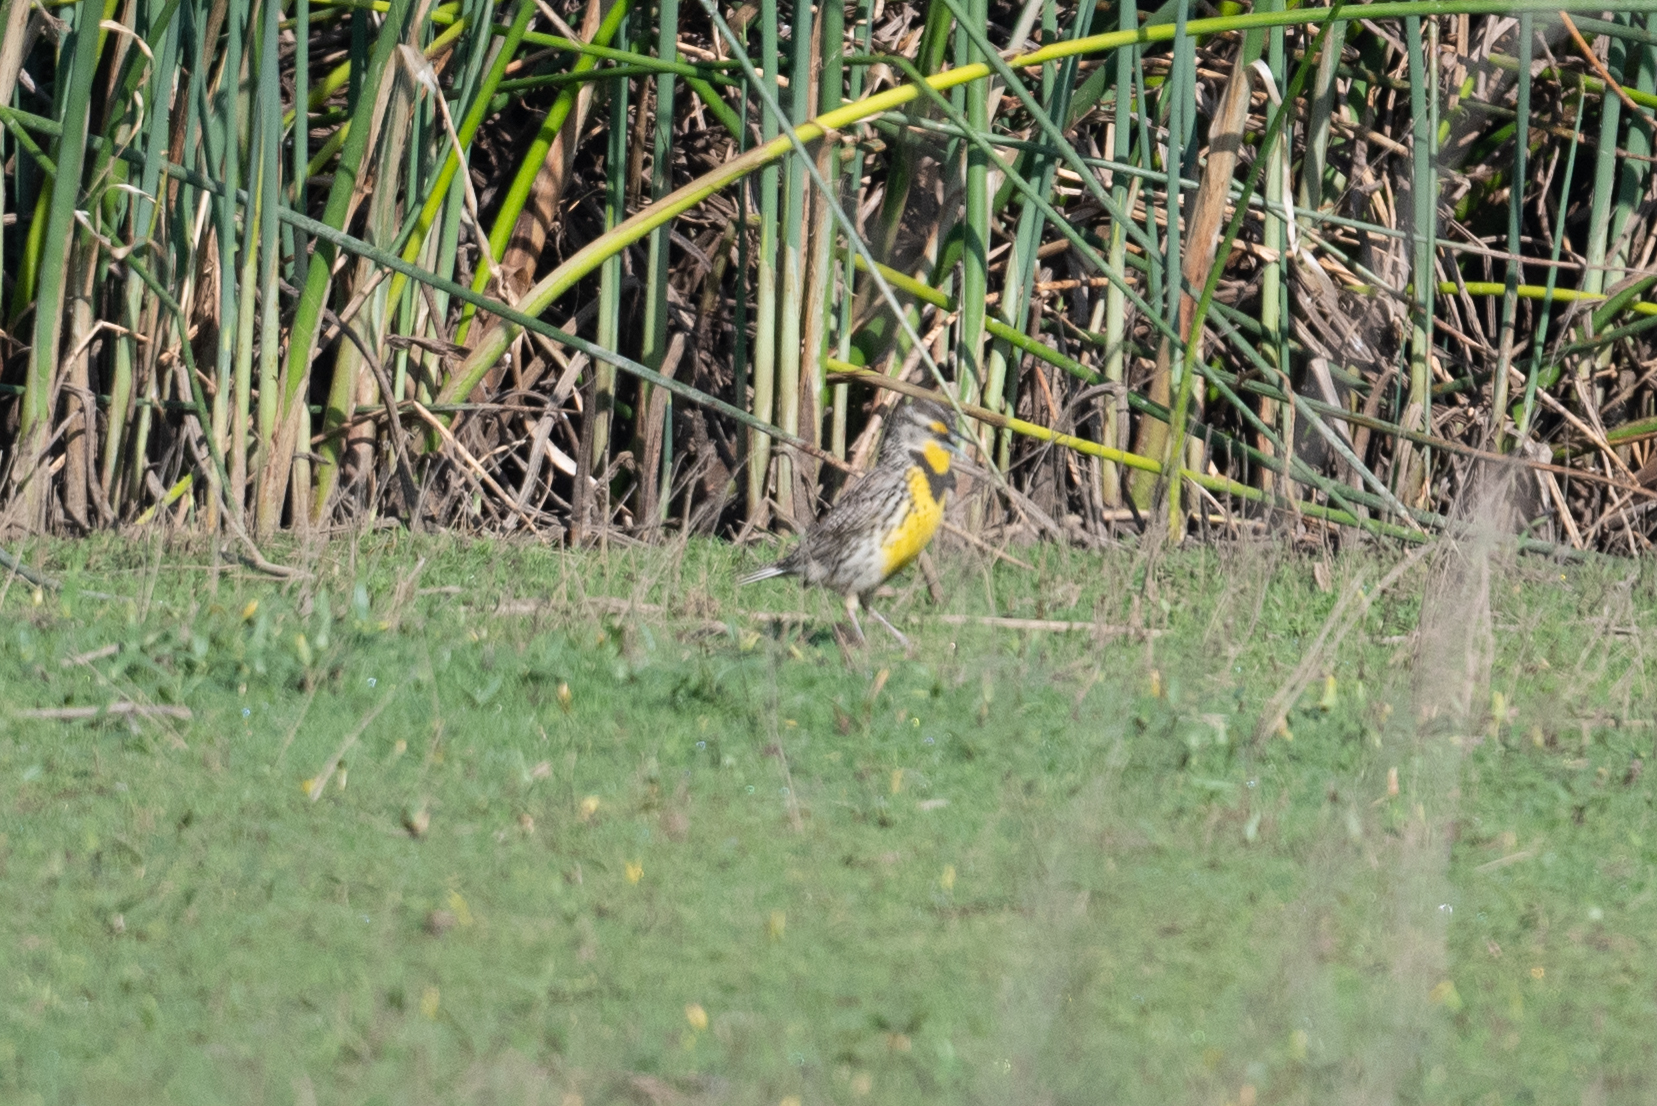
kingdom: Animalia
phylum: Chordata
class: Aves
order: Passeriformes
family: Icteridae
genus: Sturnella
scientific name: Sturnella neglecta
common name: Western meadowlark
